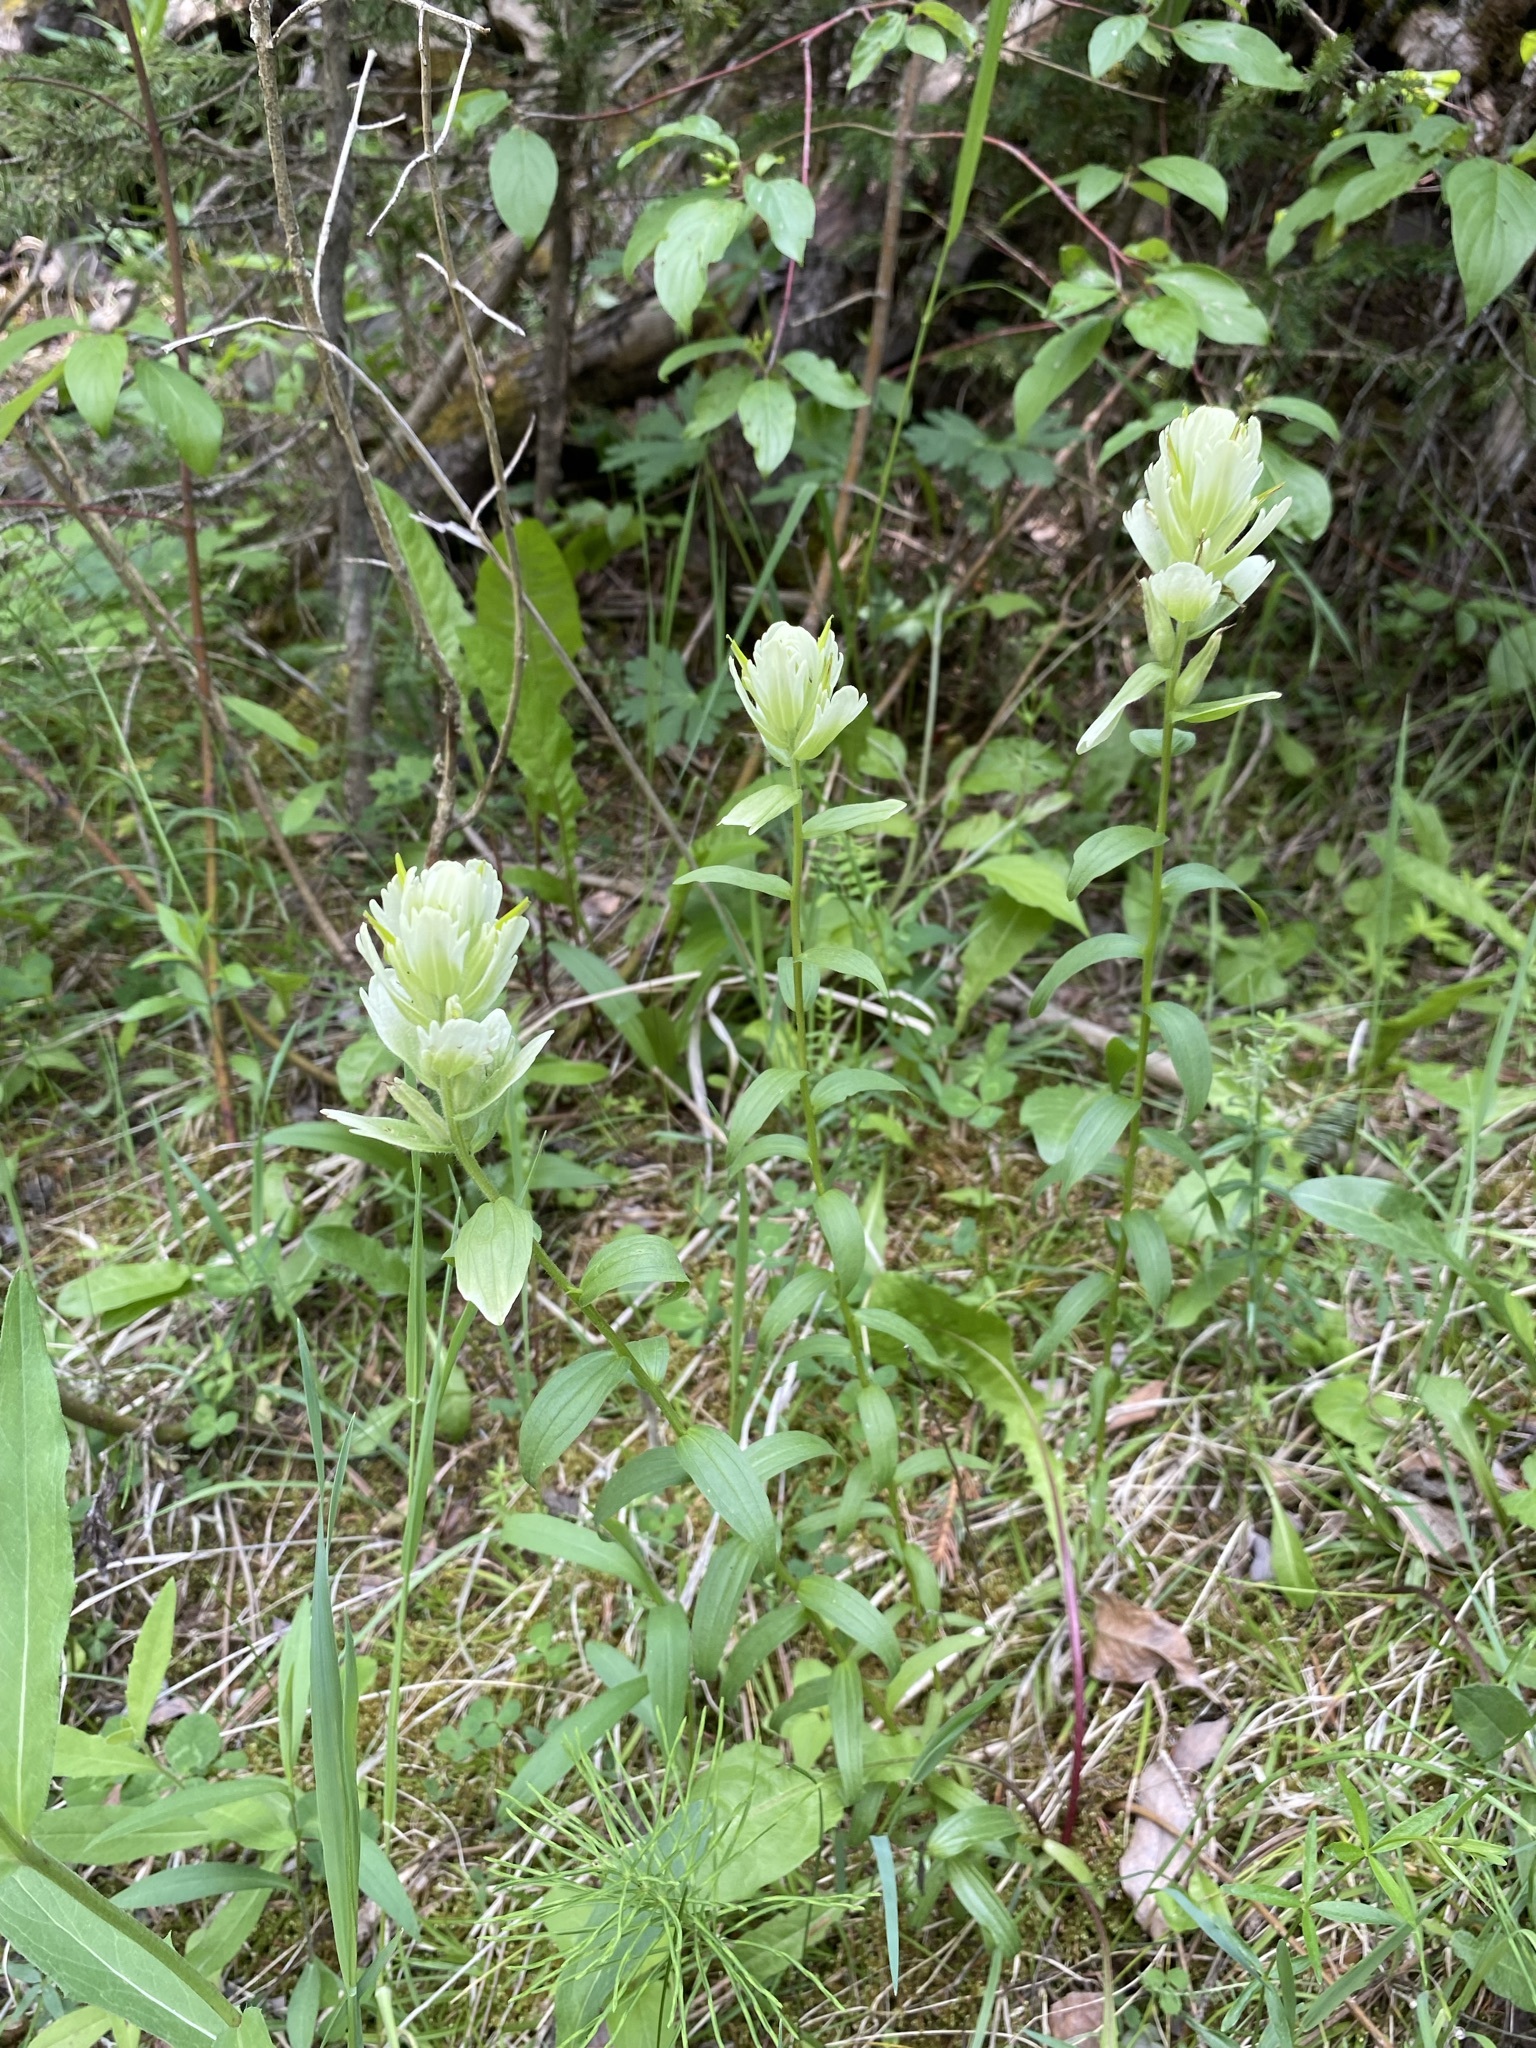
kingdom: Plantae
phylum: Tracheophyta
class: Magnoliopsida
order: Lamiales
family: Orobanchaceae
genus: Castilleja
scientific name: Castilleja septentrionalis
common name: Northeastern paintbrush
